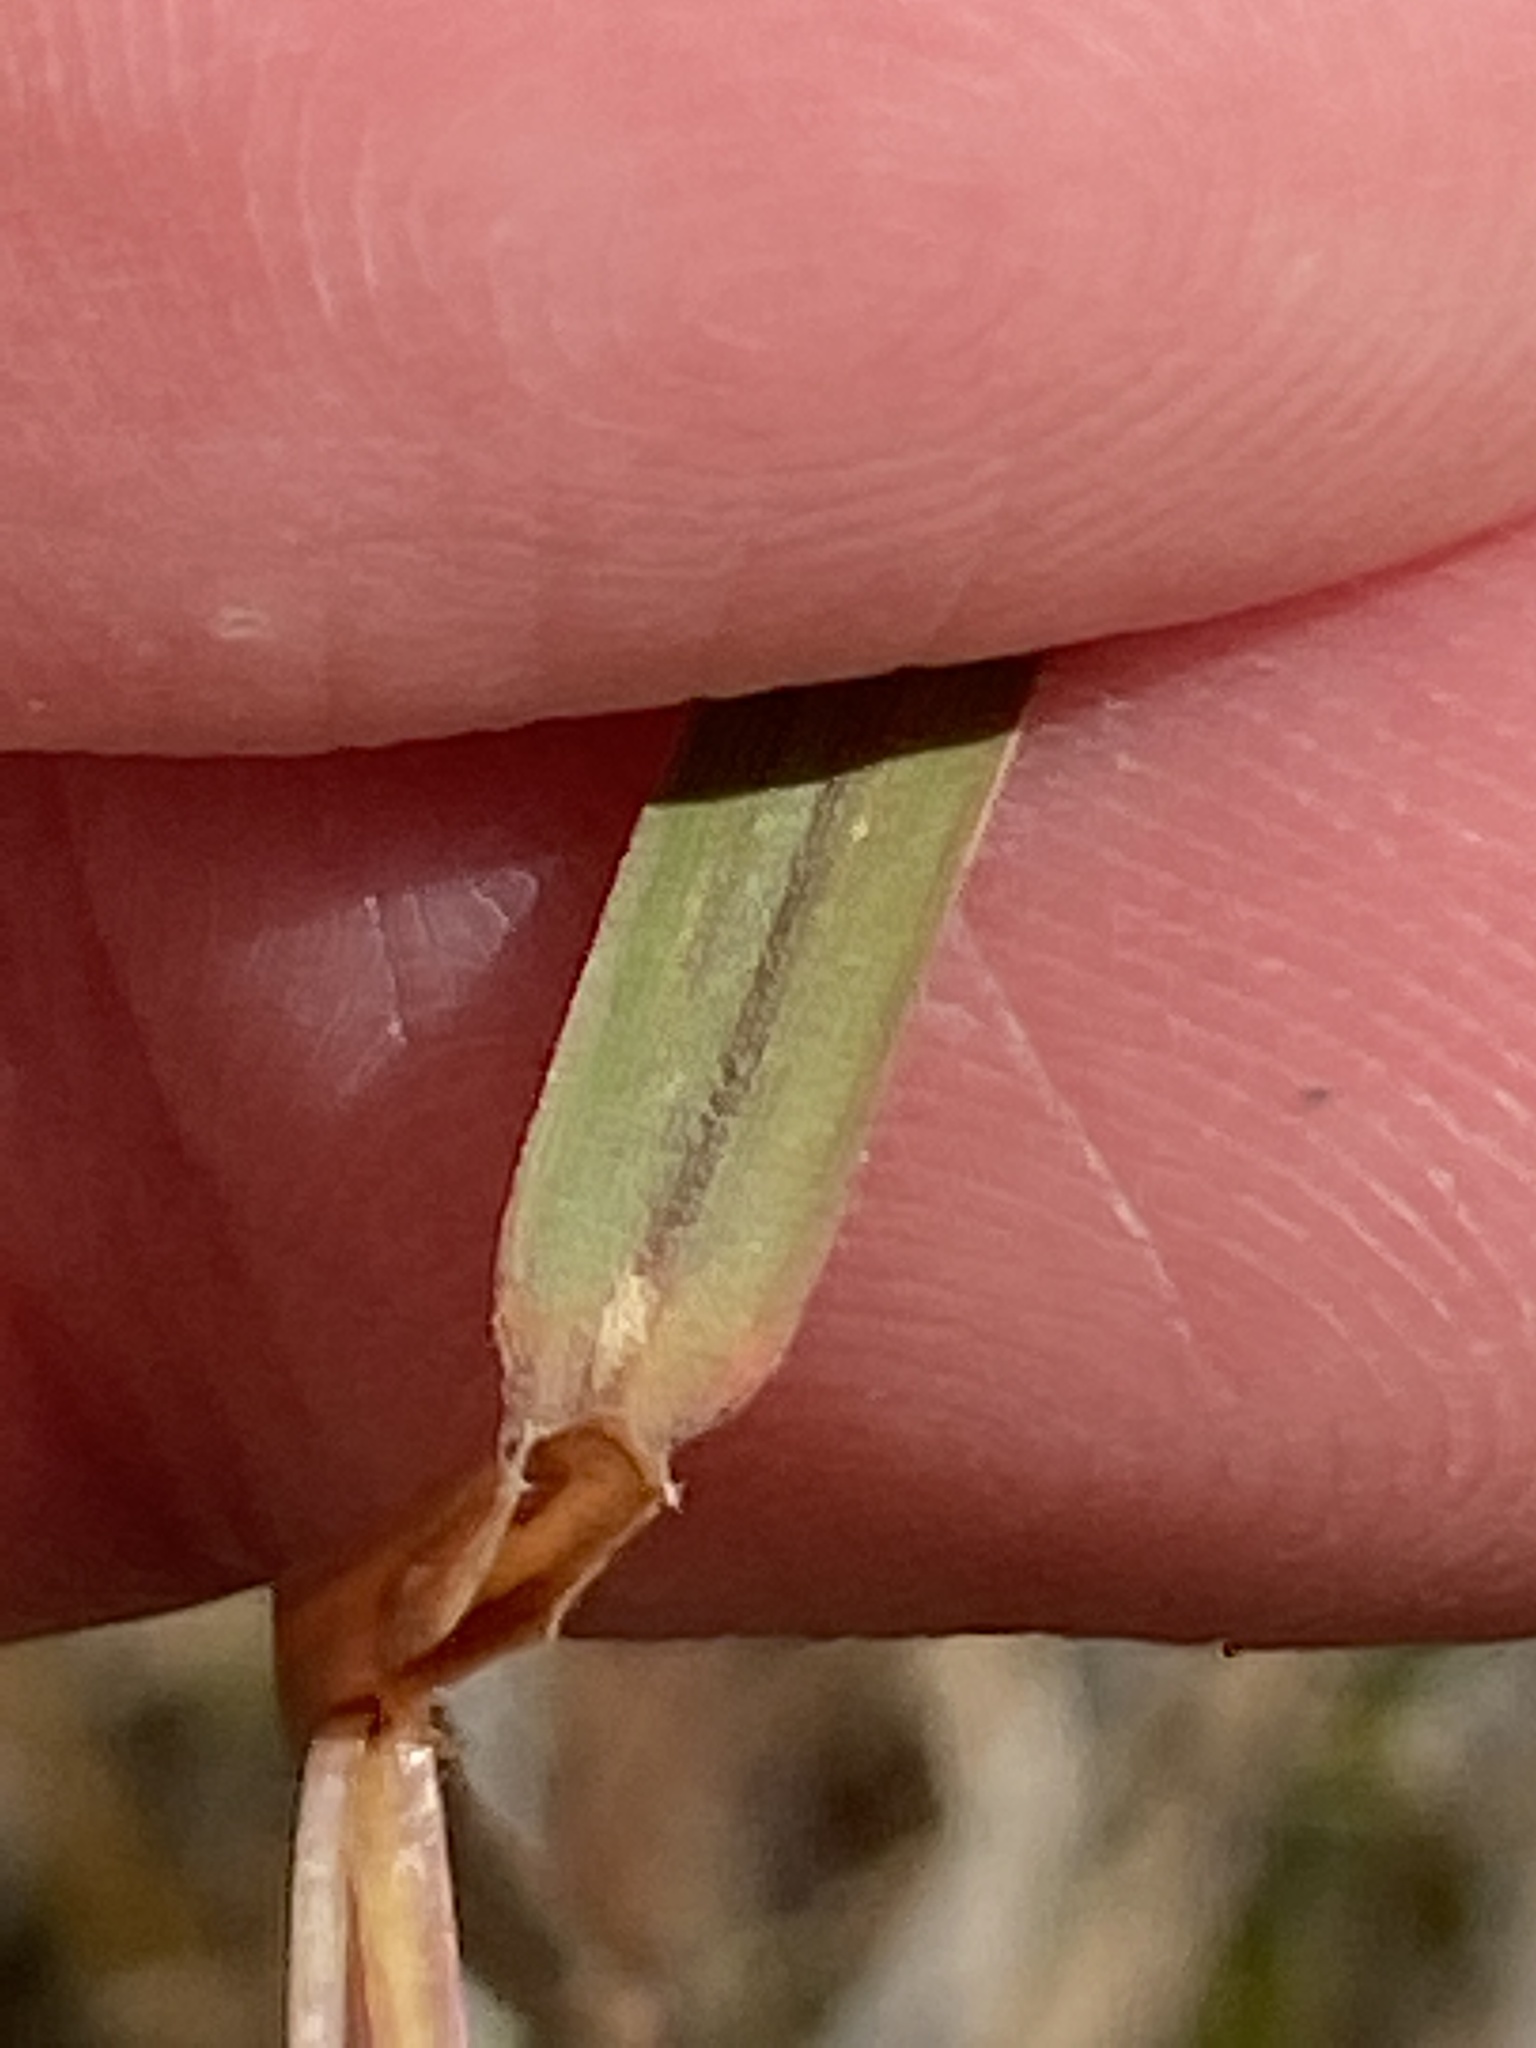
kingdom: Plantae
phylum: Tracheophyta
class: Liliopsida
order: Poales
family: Poaceae
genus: Schizachyrium
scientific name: Schizachyrium scoparium
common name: Little bluestem
